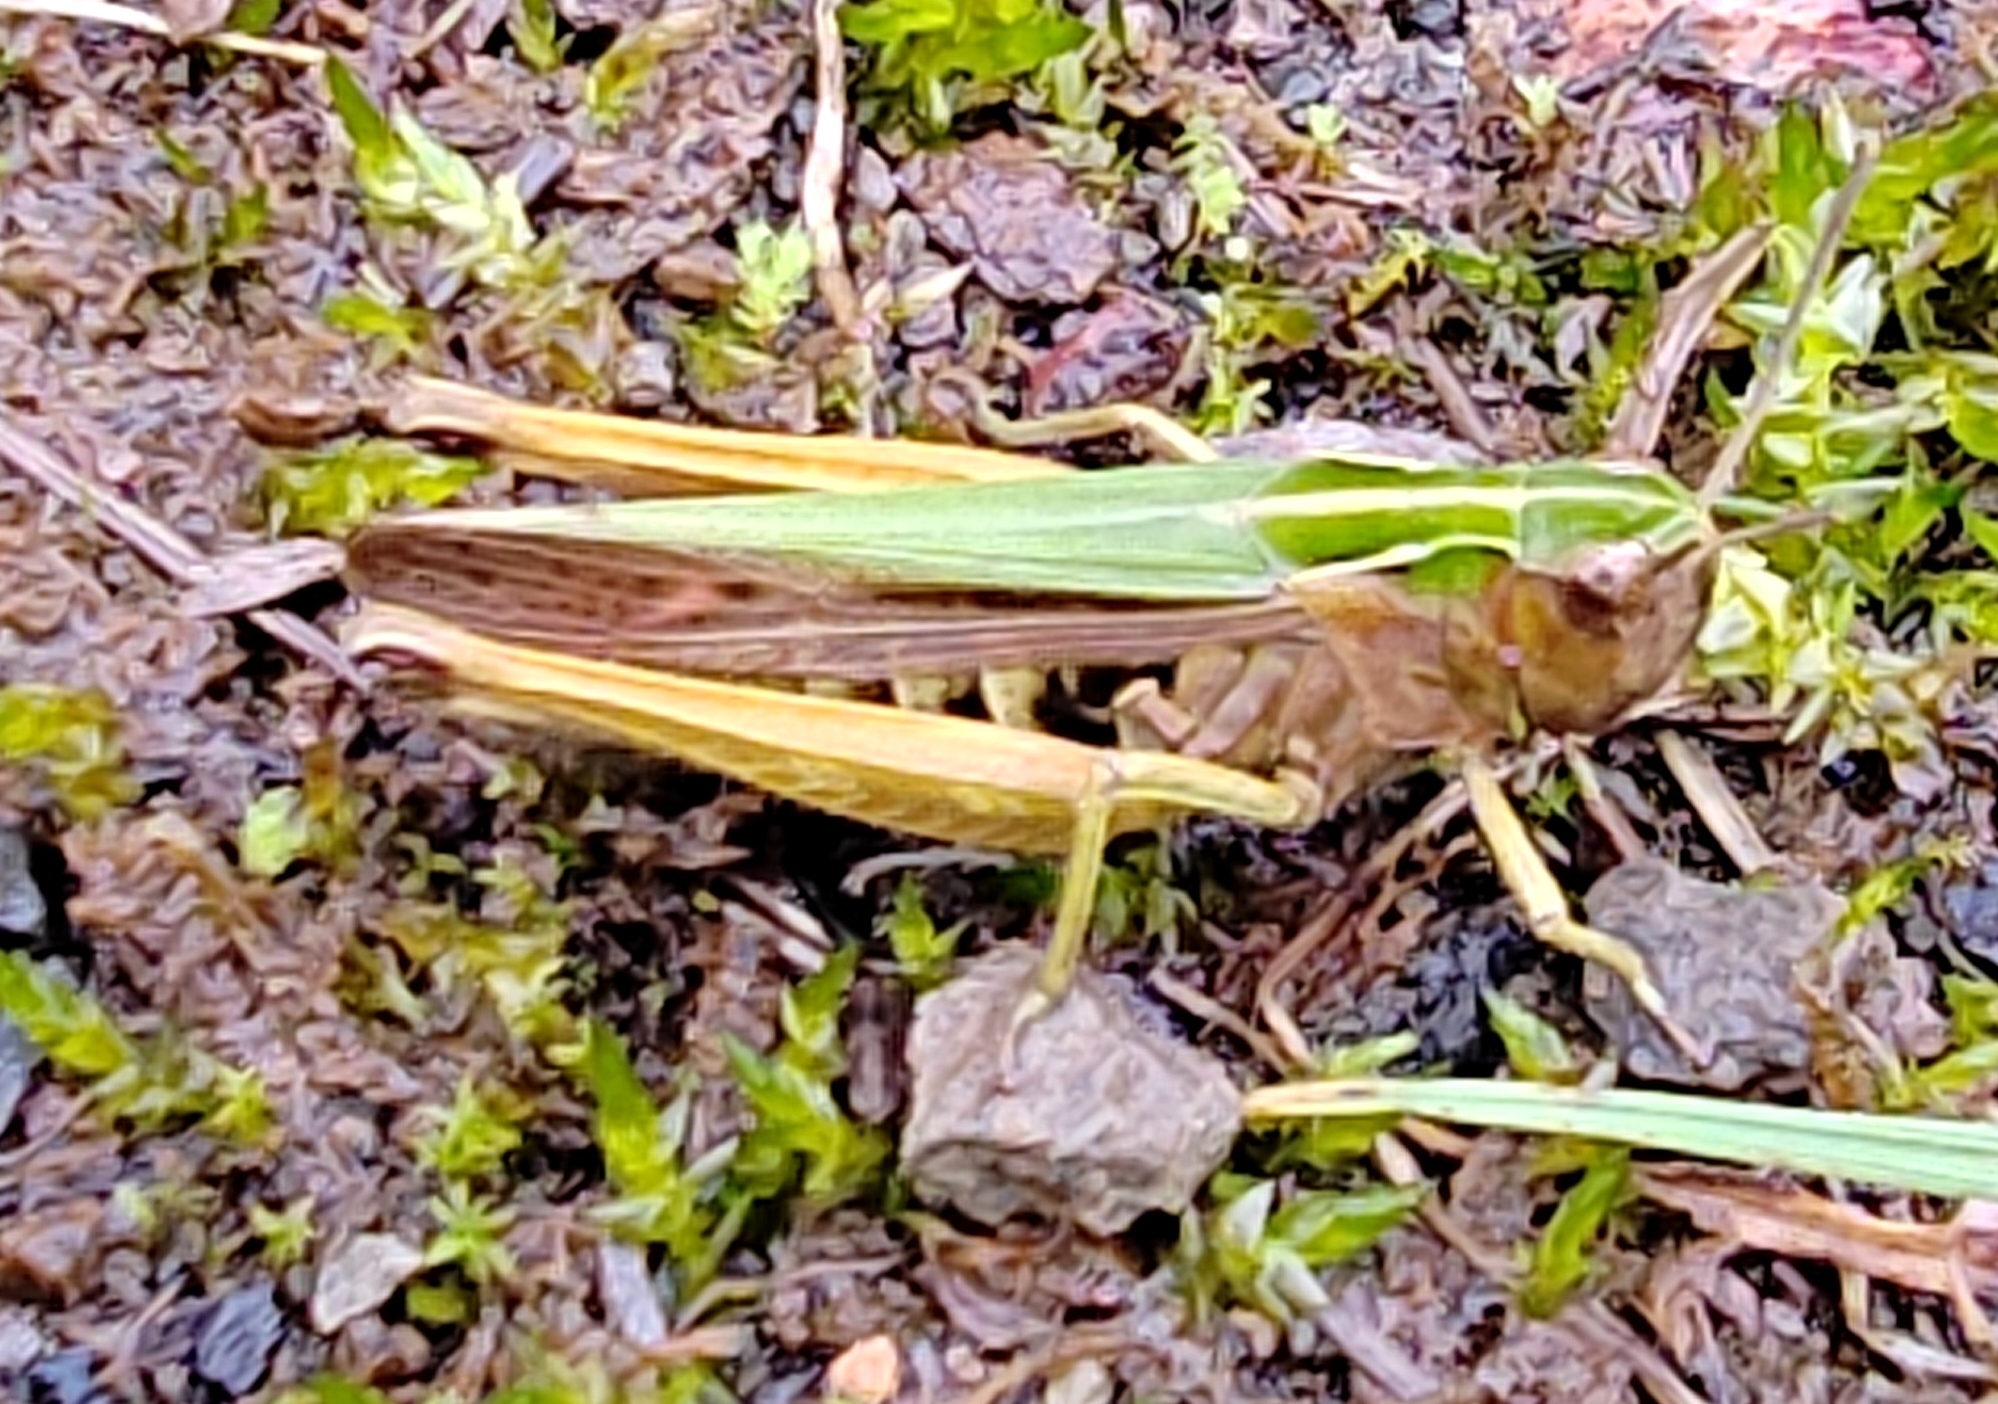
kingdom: Animalia
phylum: Arthropoda
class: Insecta
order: Orthoptera
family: Acrididae
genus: Omocestus
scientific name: Omocestus viridulus
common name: Common green grasshopper
